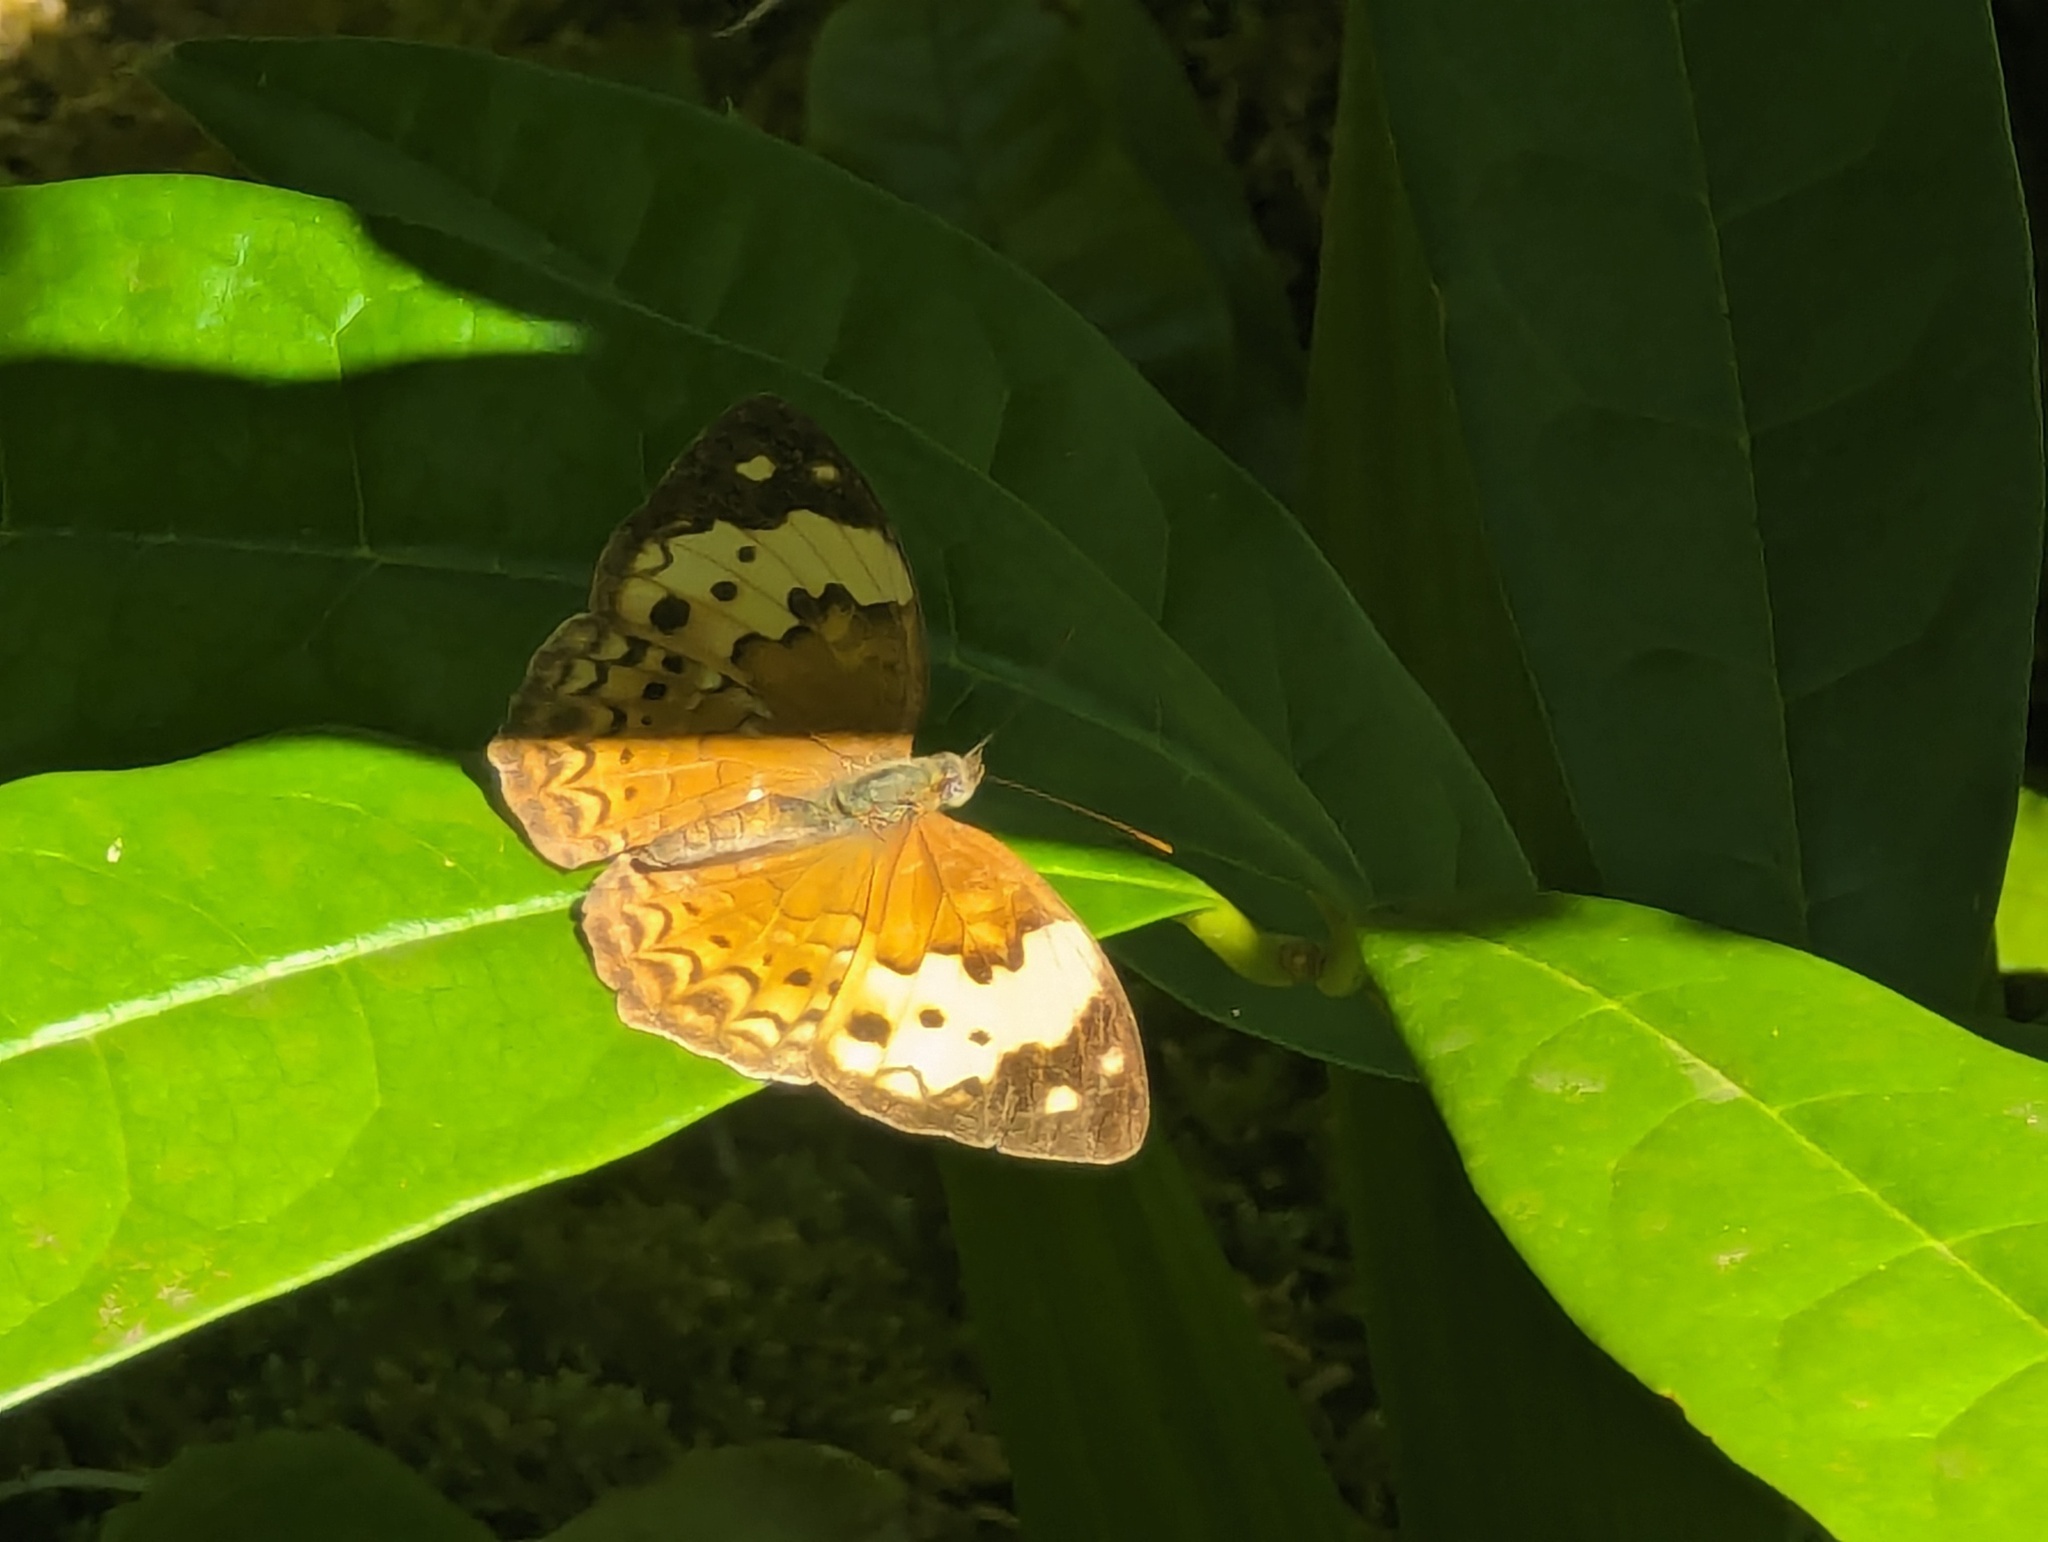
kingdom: Animalia
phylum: Arthropoda
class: Insecta
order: Lepidoptera
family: Nymphalidae
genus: Cupha
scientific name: Cupha erymanthis
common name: Rustic
